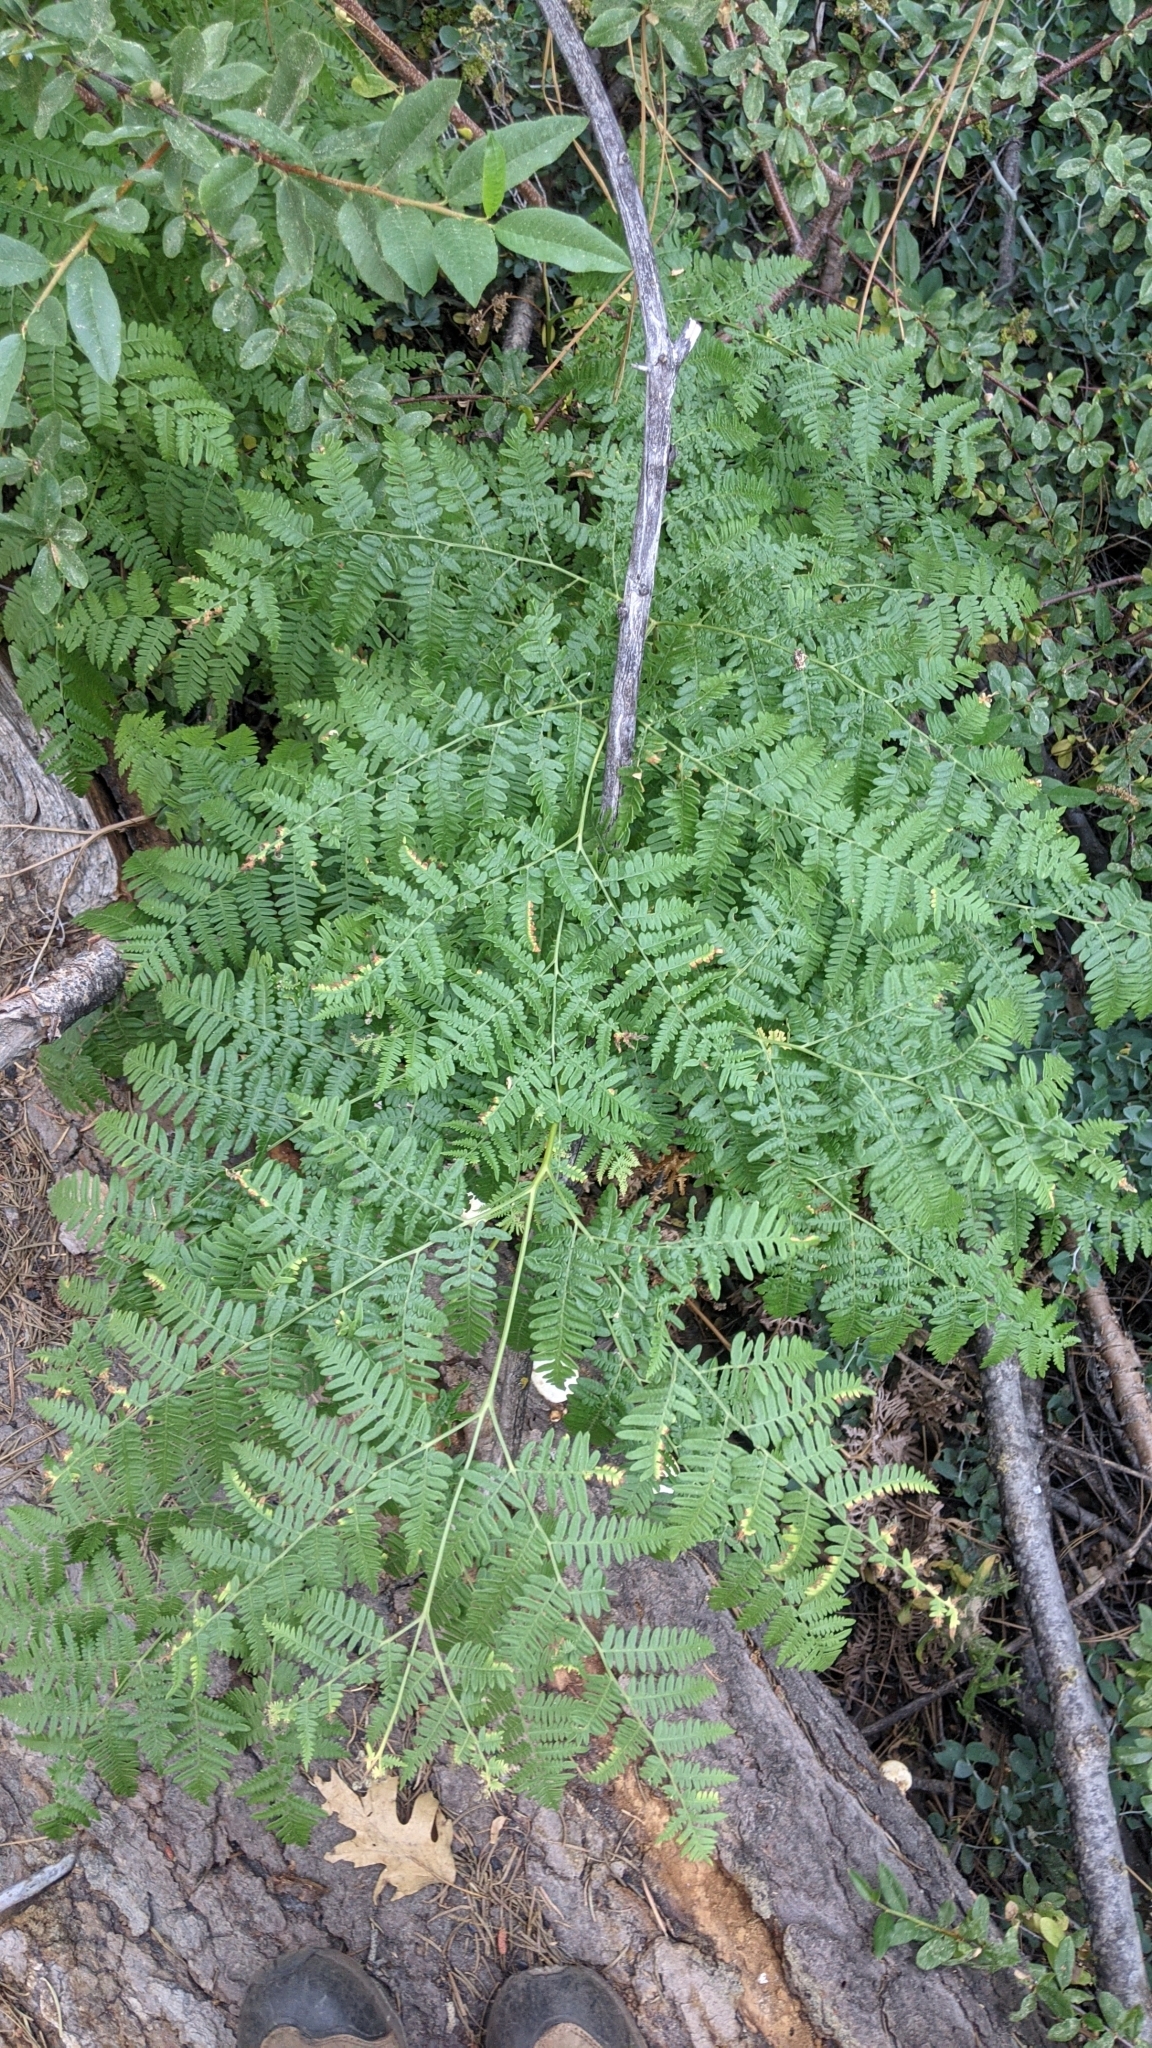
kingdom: Plantae
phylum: Tracheophyta
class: Polypodiopsida
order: Polypodiales
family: Dennstaedtiaceae
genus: Pteridium
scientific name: Pteridium aquilinum
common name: Bracken
